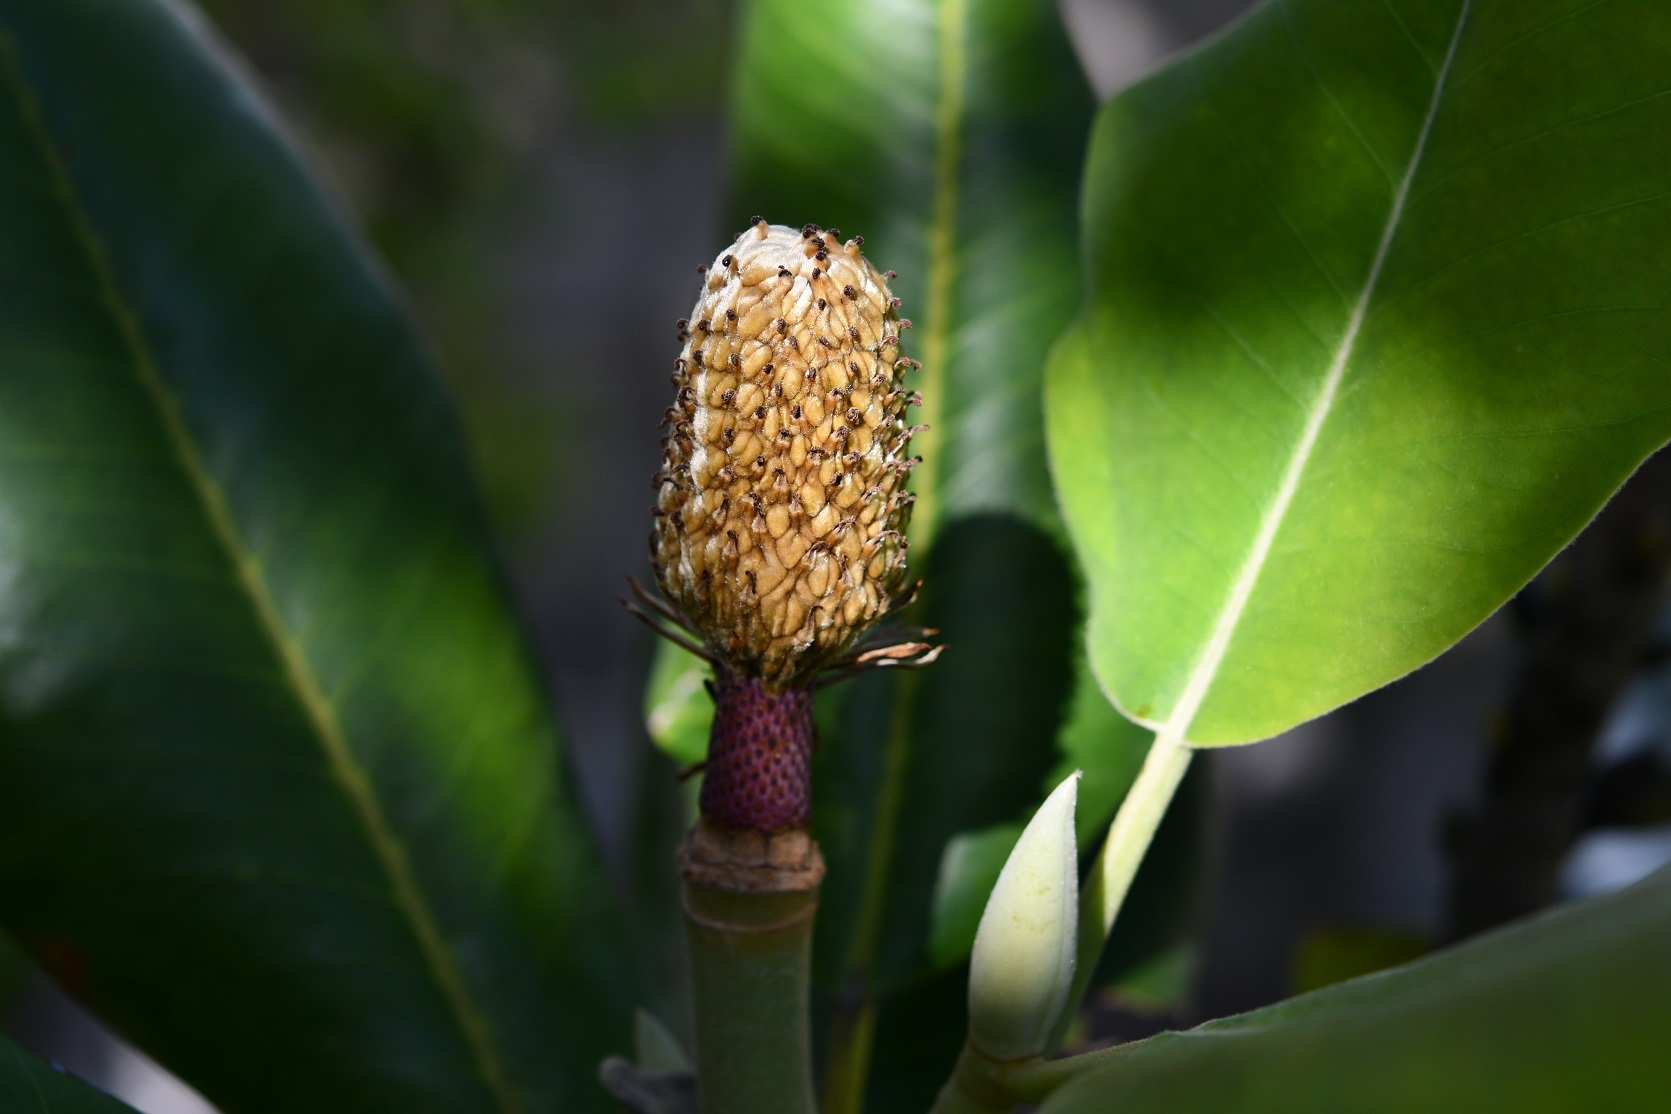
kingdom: Plantae
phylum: Tracheophyta
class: Magnoliopsida
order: Magnoliales
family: Magnoliaceae
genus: Magnolia
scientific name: Magnolia sharpii
